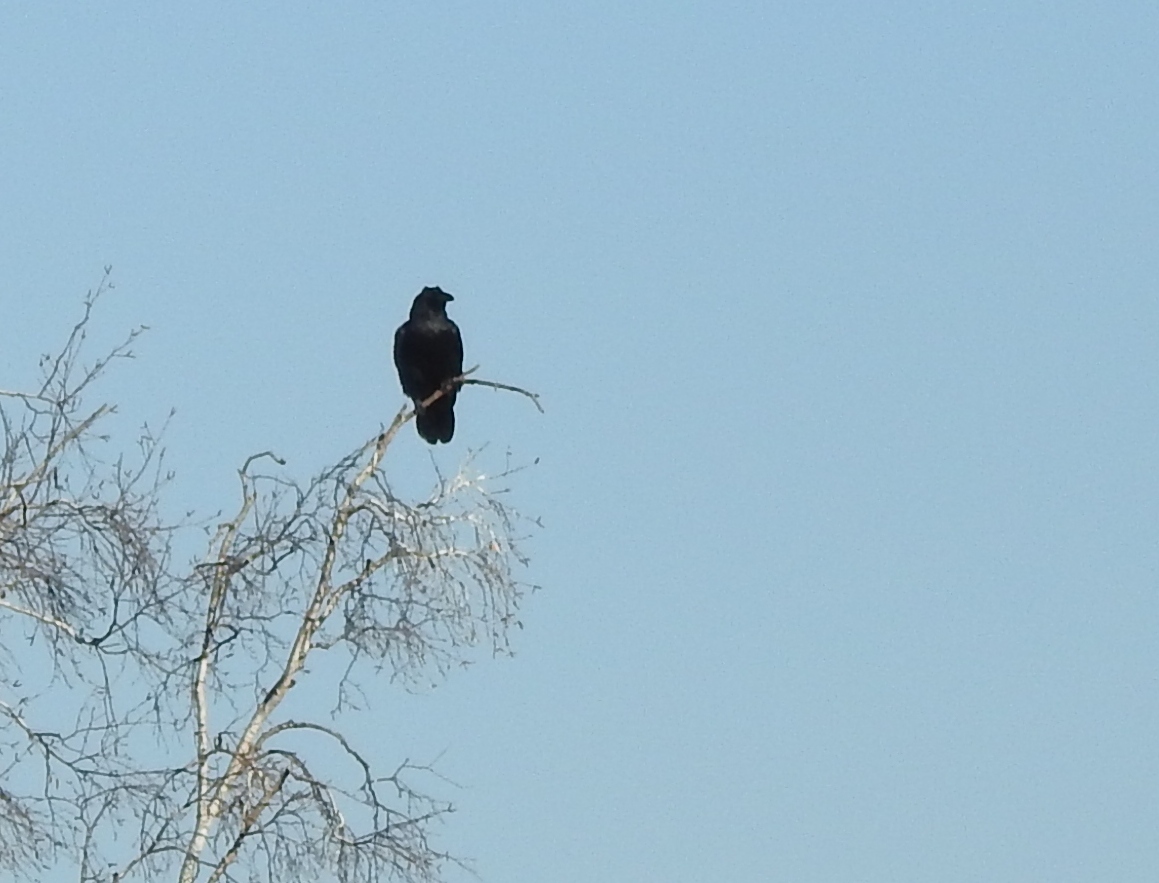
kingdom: Animalia
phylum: Chordata
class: Aves
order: Passeriformes
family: Corvidae
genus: Corvus
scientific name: Corvus corax
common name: Common raven
